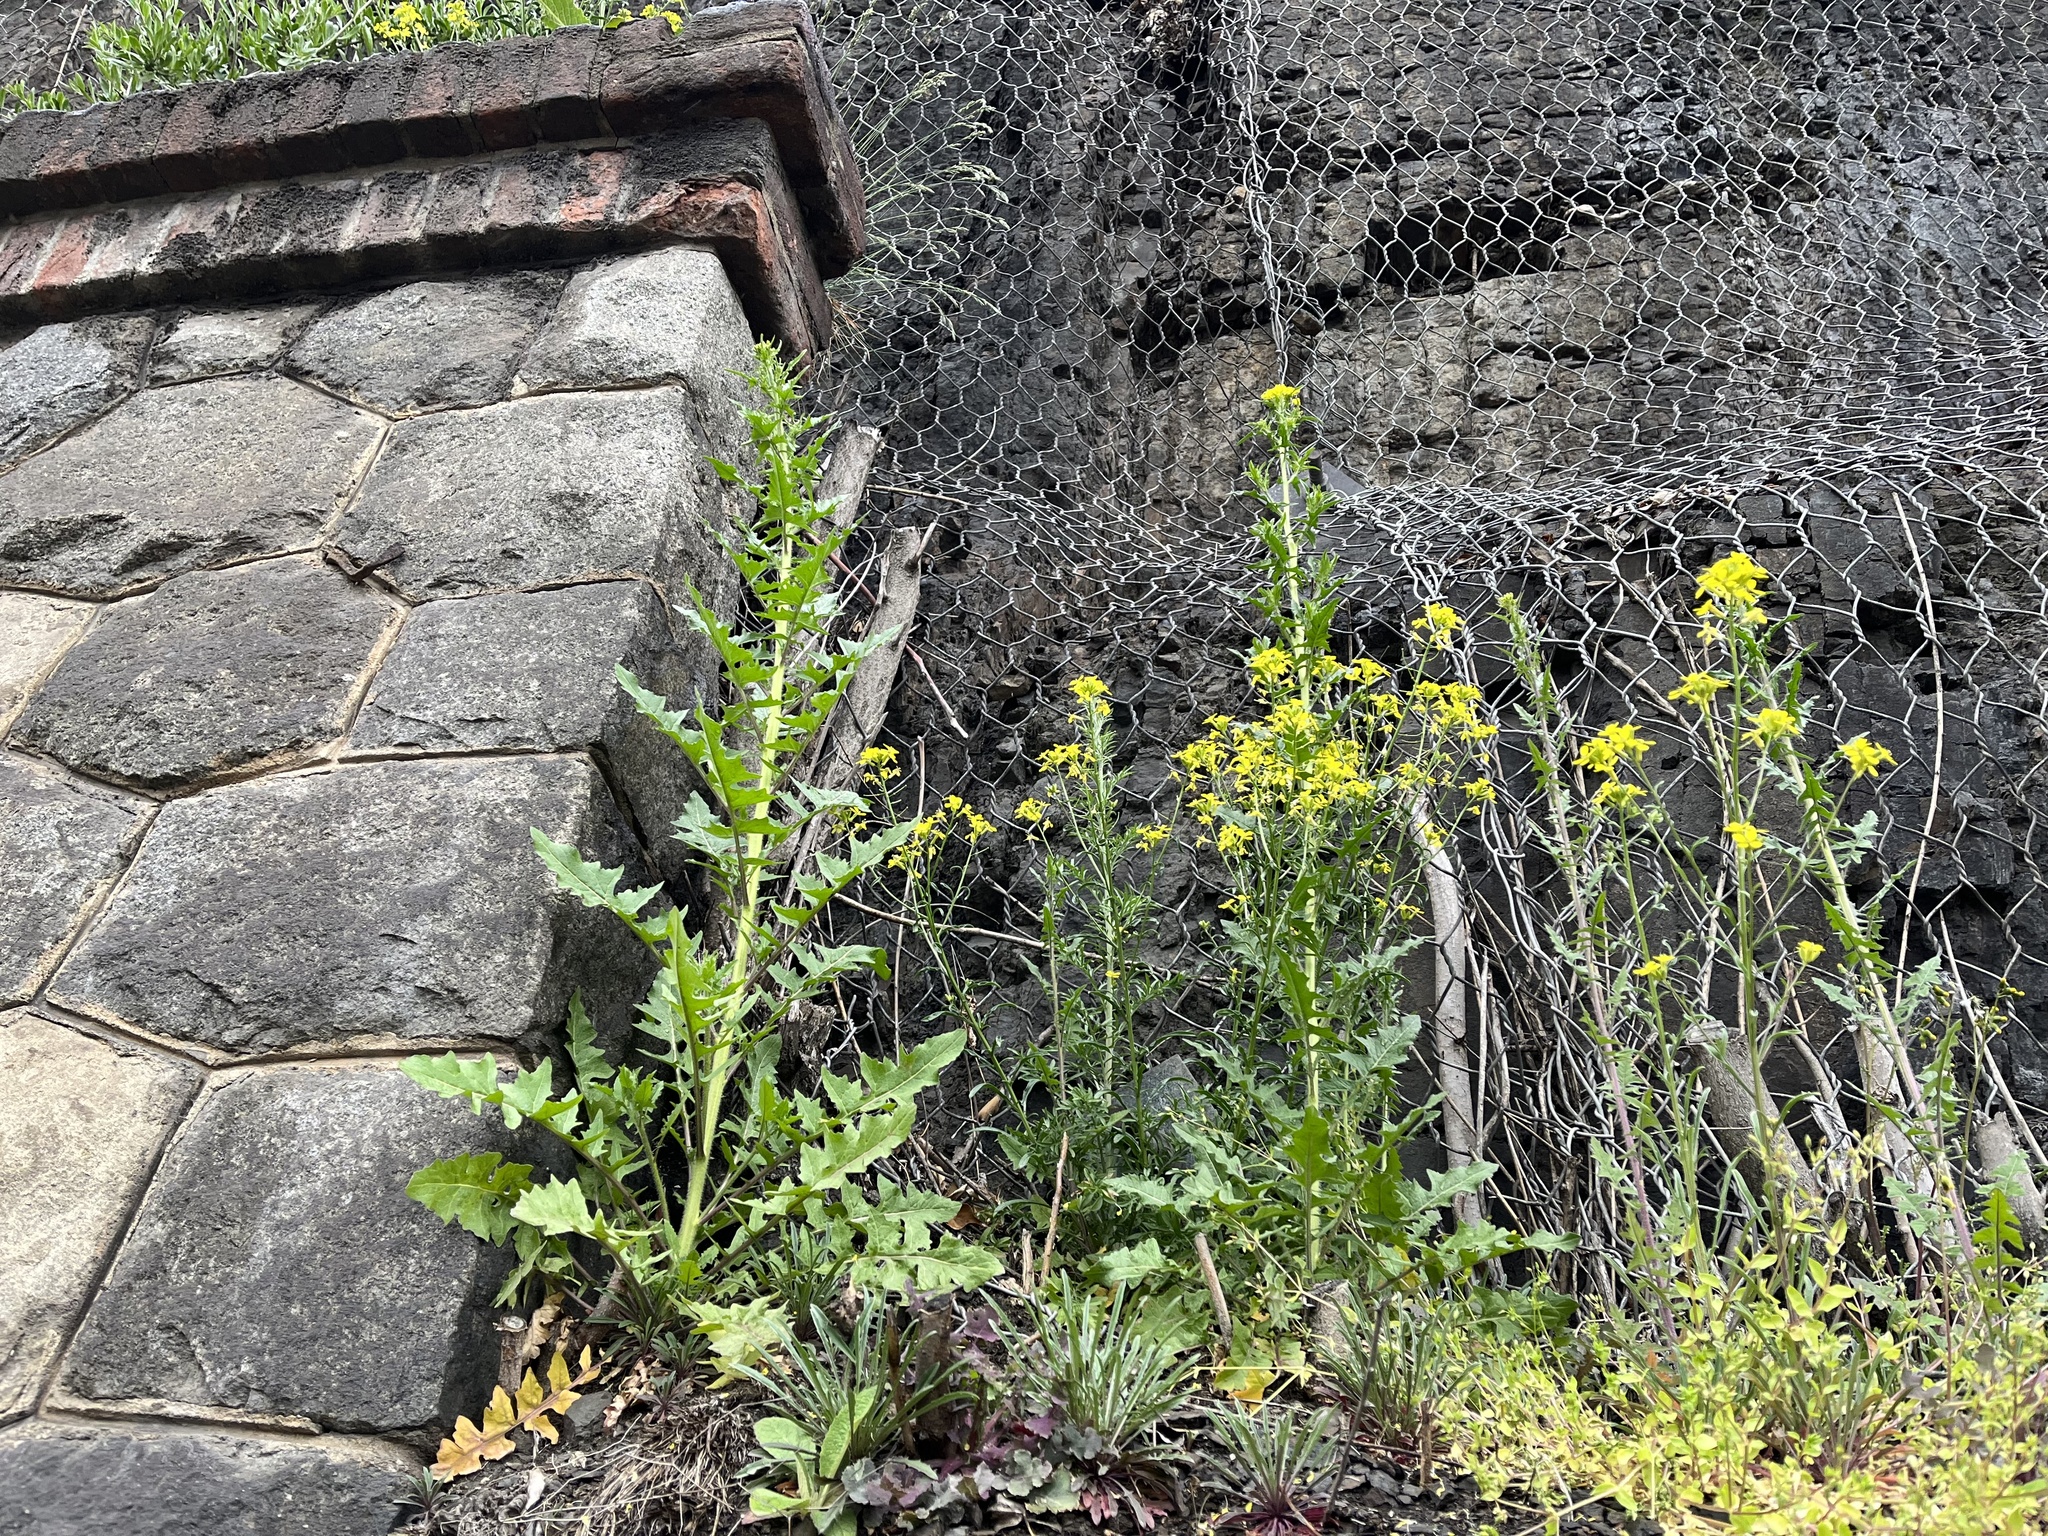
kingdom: Plantae
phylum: Tracheophyta
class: Magnoliopsida
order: Brassicales
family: Brassicaceae
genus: Sisymbrium
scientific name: Sisymbrium loeselii
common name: False london-rocket
